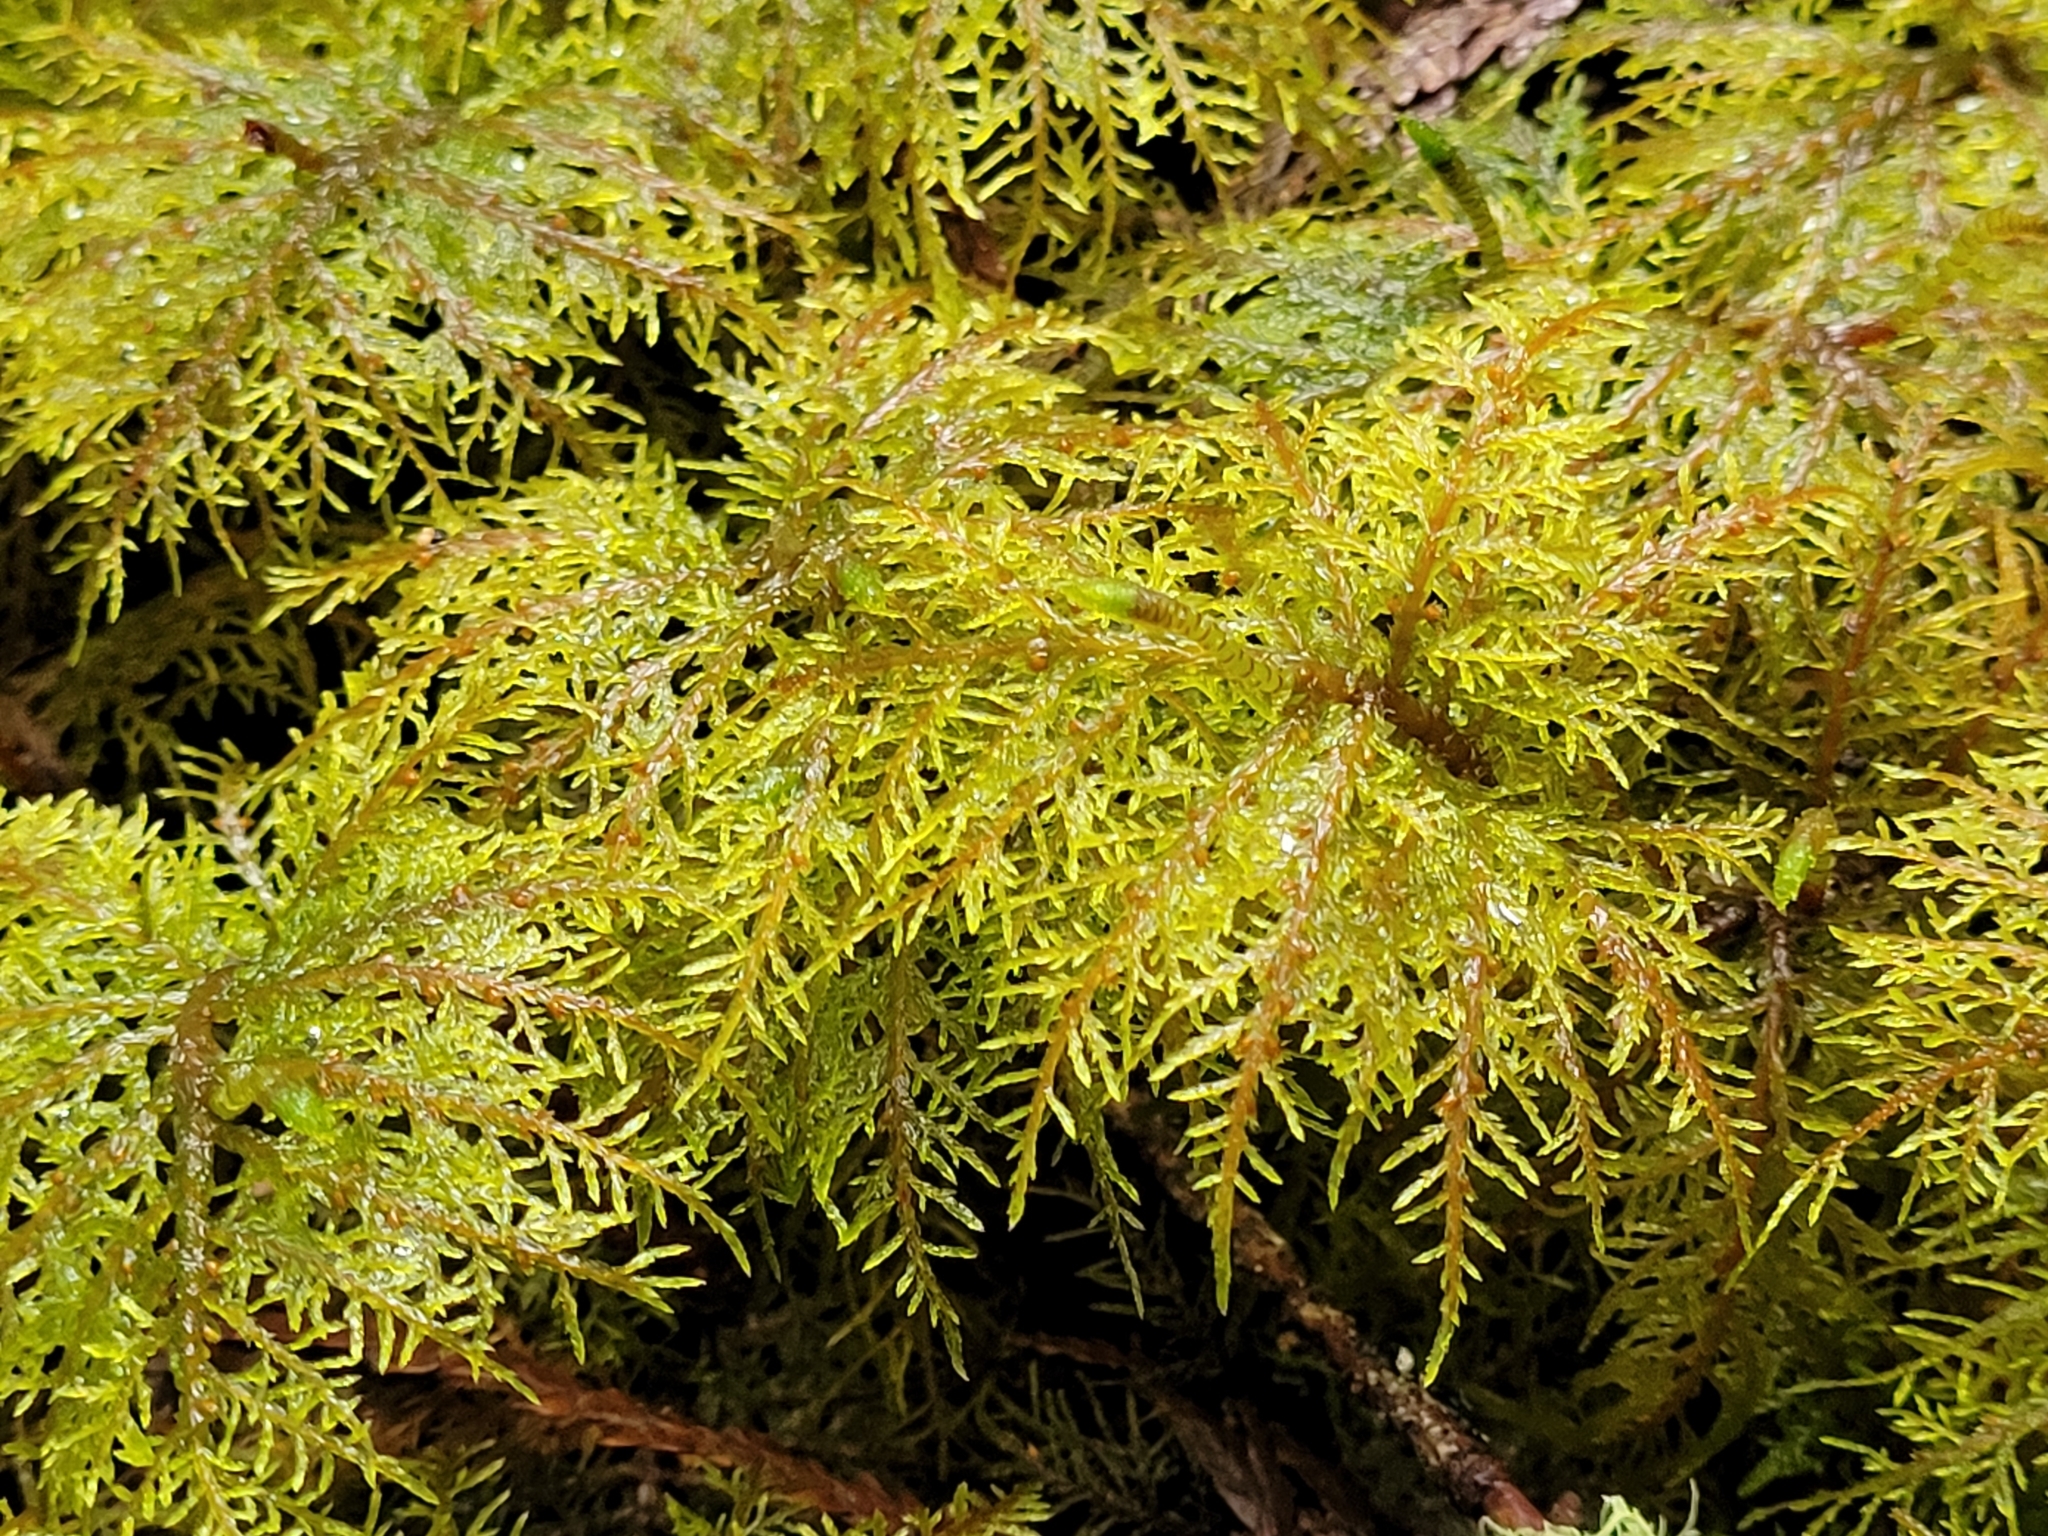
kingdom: Plantae
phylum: Bryophyta
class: Bryopsida
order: Hypnales
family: Hylocomiaceae
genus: Hylocomium
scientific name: Hylocomium splendens
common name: Stairstep moss
